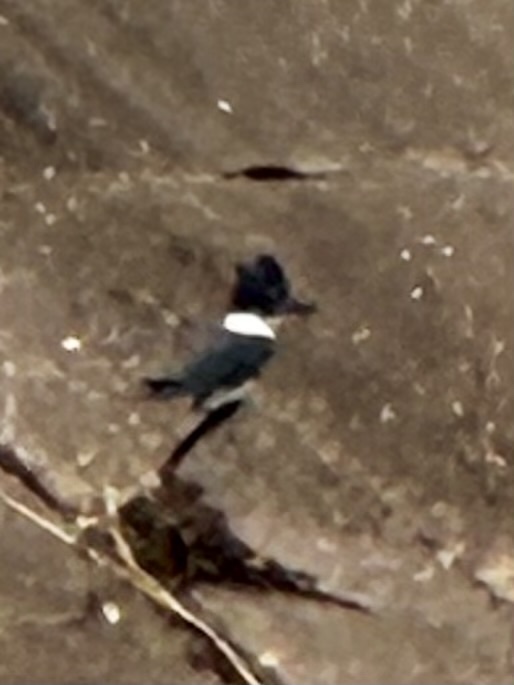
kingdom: Animalia
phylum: Chordata
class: Aves
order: Coraciiformes
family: Alcedinidae
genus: Megaceryle
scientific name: Megaceryle alcyon
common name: Belted kingfisher
